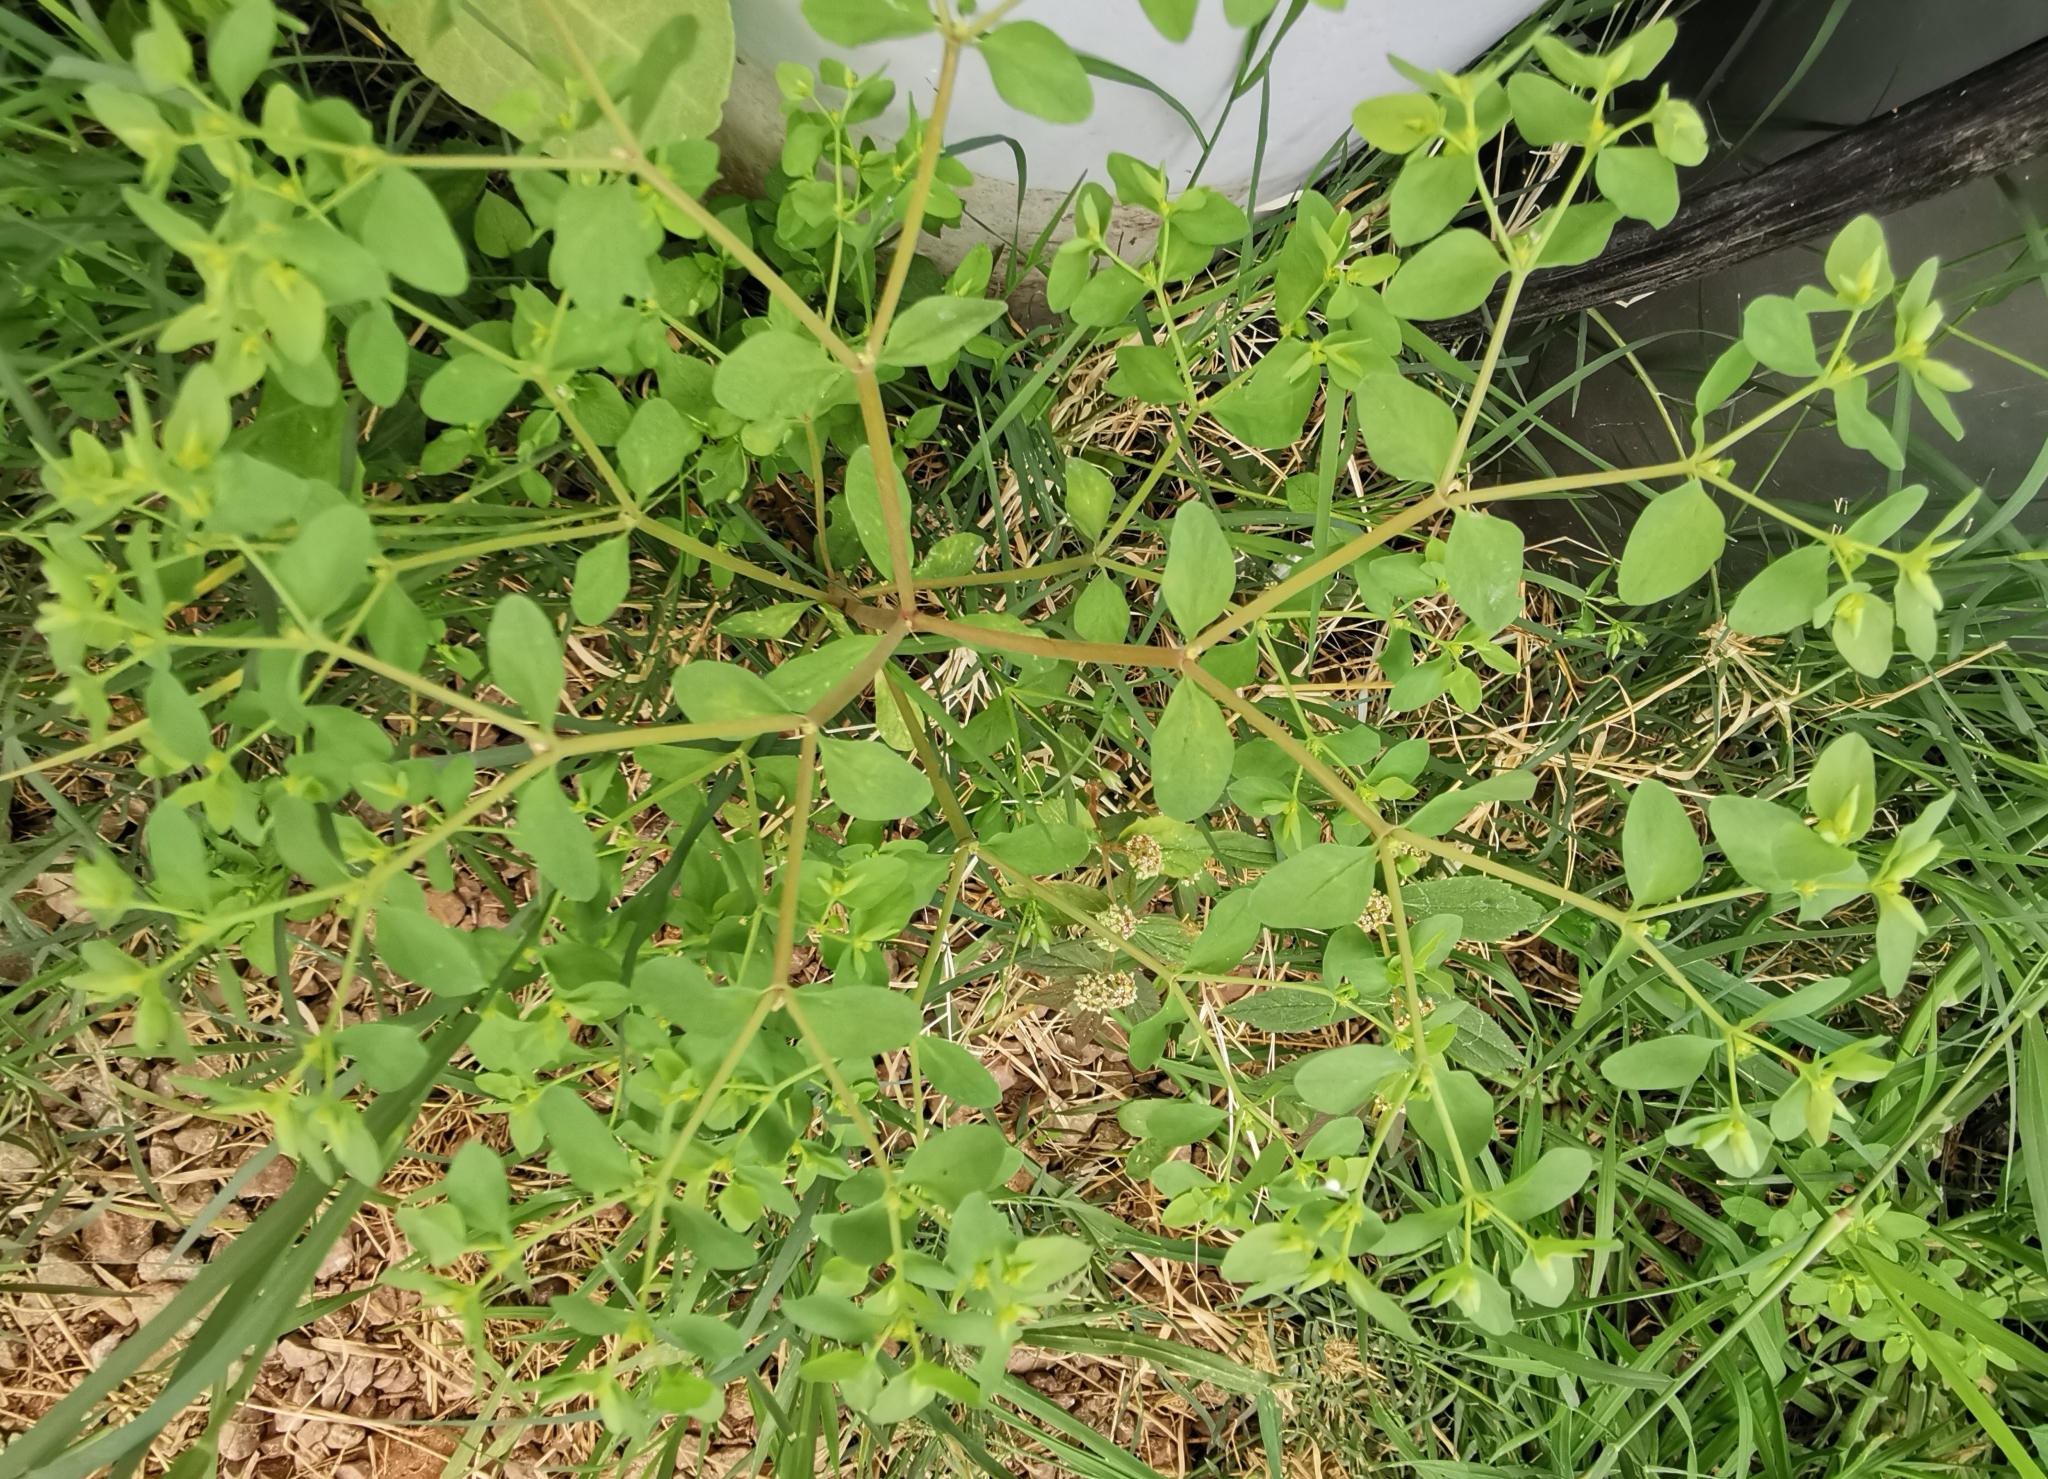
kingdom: Plantae
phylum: Tracheophyta
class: Magnoliopsida
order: Malpighiales
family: Euphorbiaceae
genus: Euphorbia
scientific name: Euphorbia peplus
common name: Petty spurge
